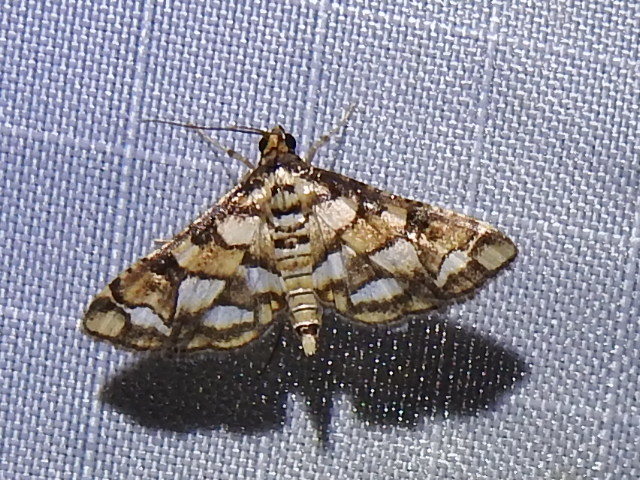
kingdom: Animalia
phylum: Arthropoda
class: Insecta
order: Lepidoptera
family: Crambidae
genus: Hileithia
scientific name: Hileithia magualis
